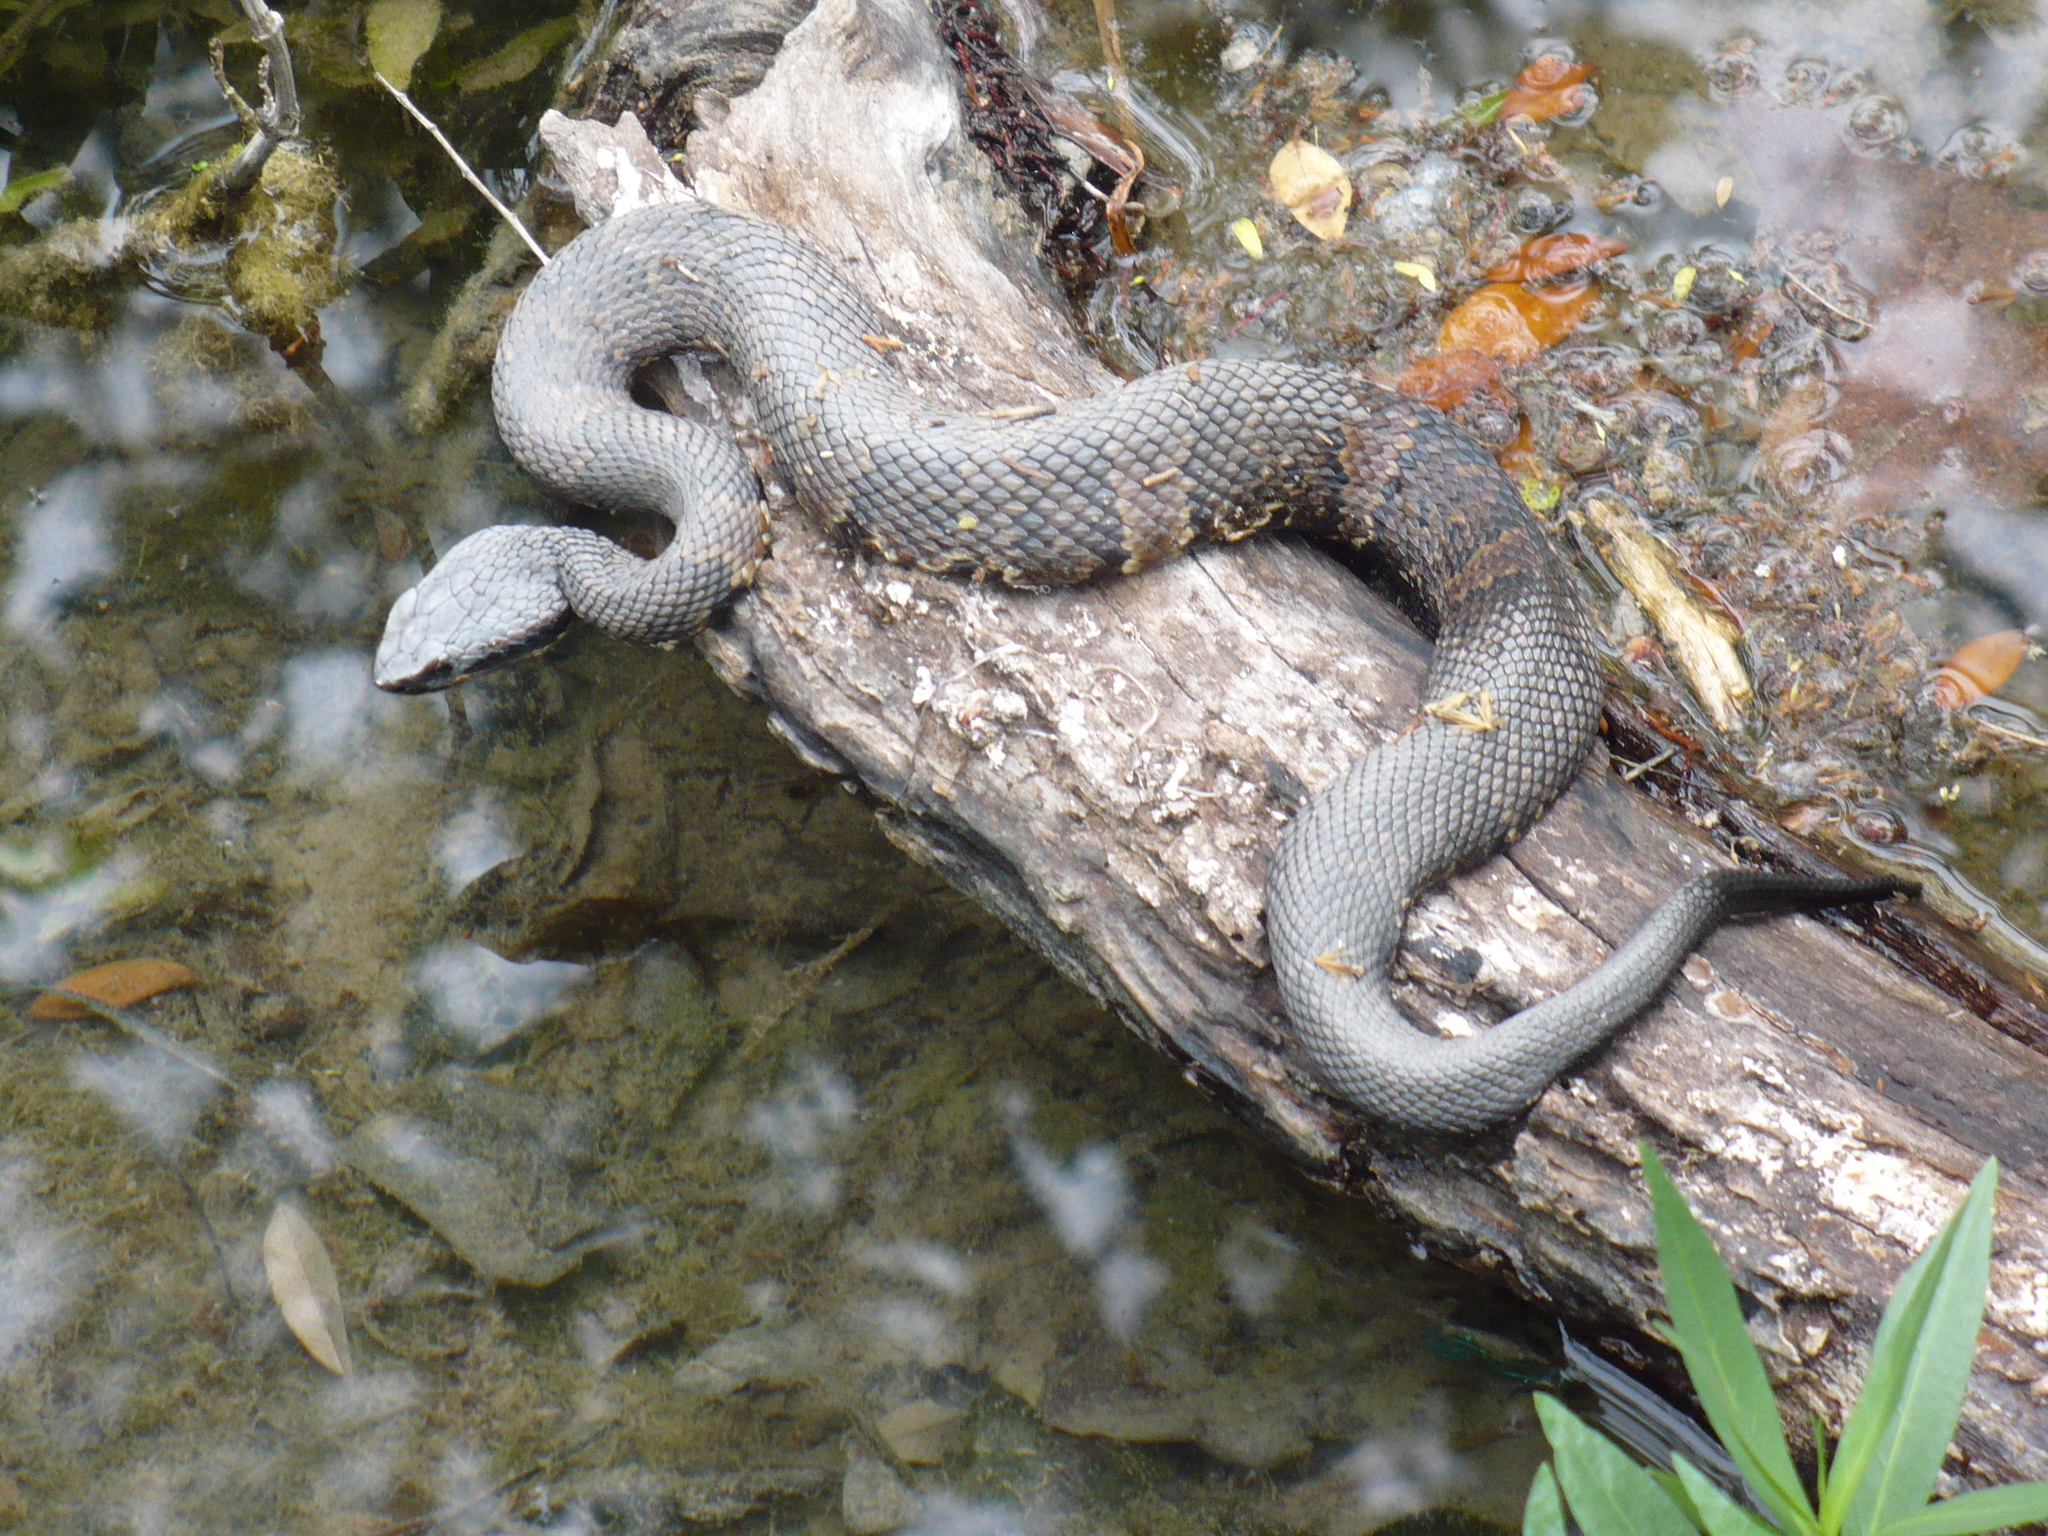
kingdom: Animalia
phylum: Chordata
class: Squamata
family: Viperidae
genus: Agkistrodon
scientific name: Agkistrodon piscivorus
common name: Cottonmouth
